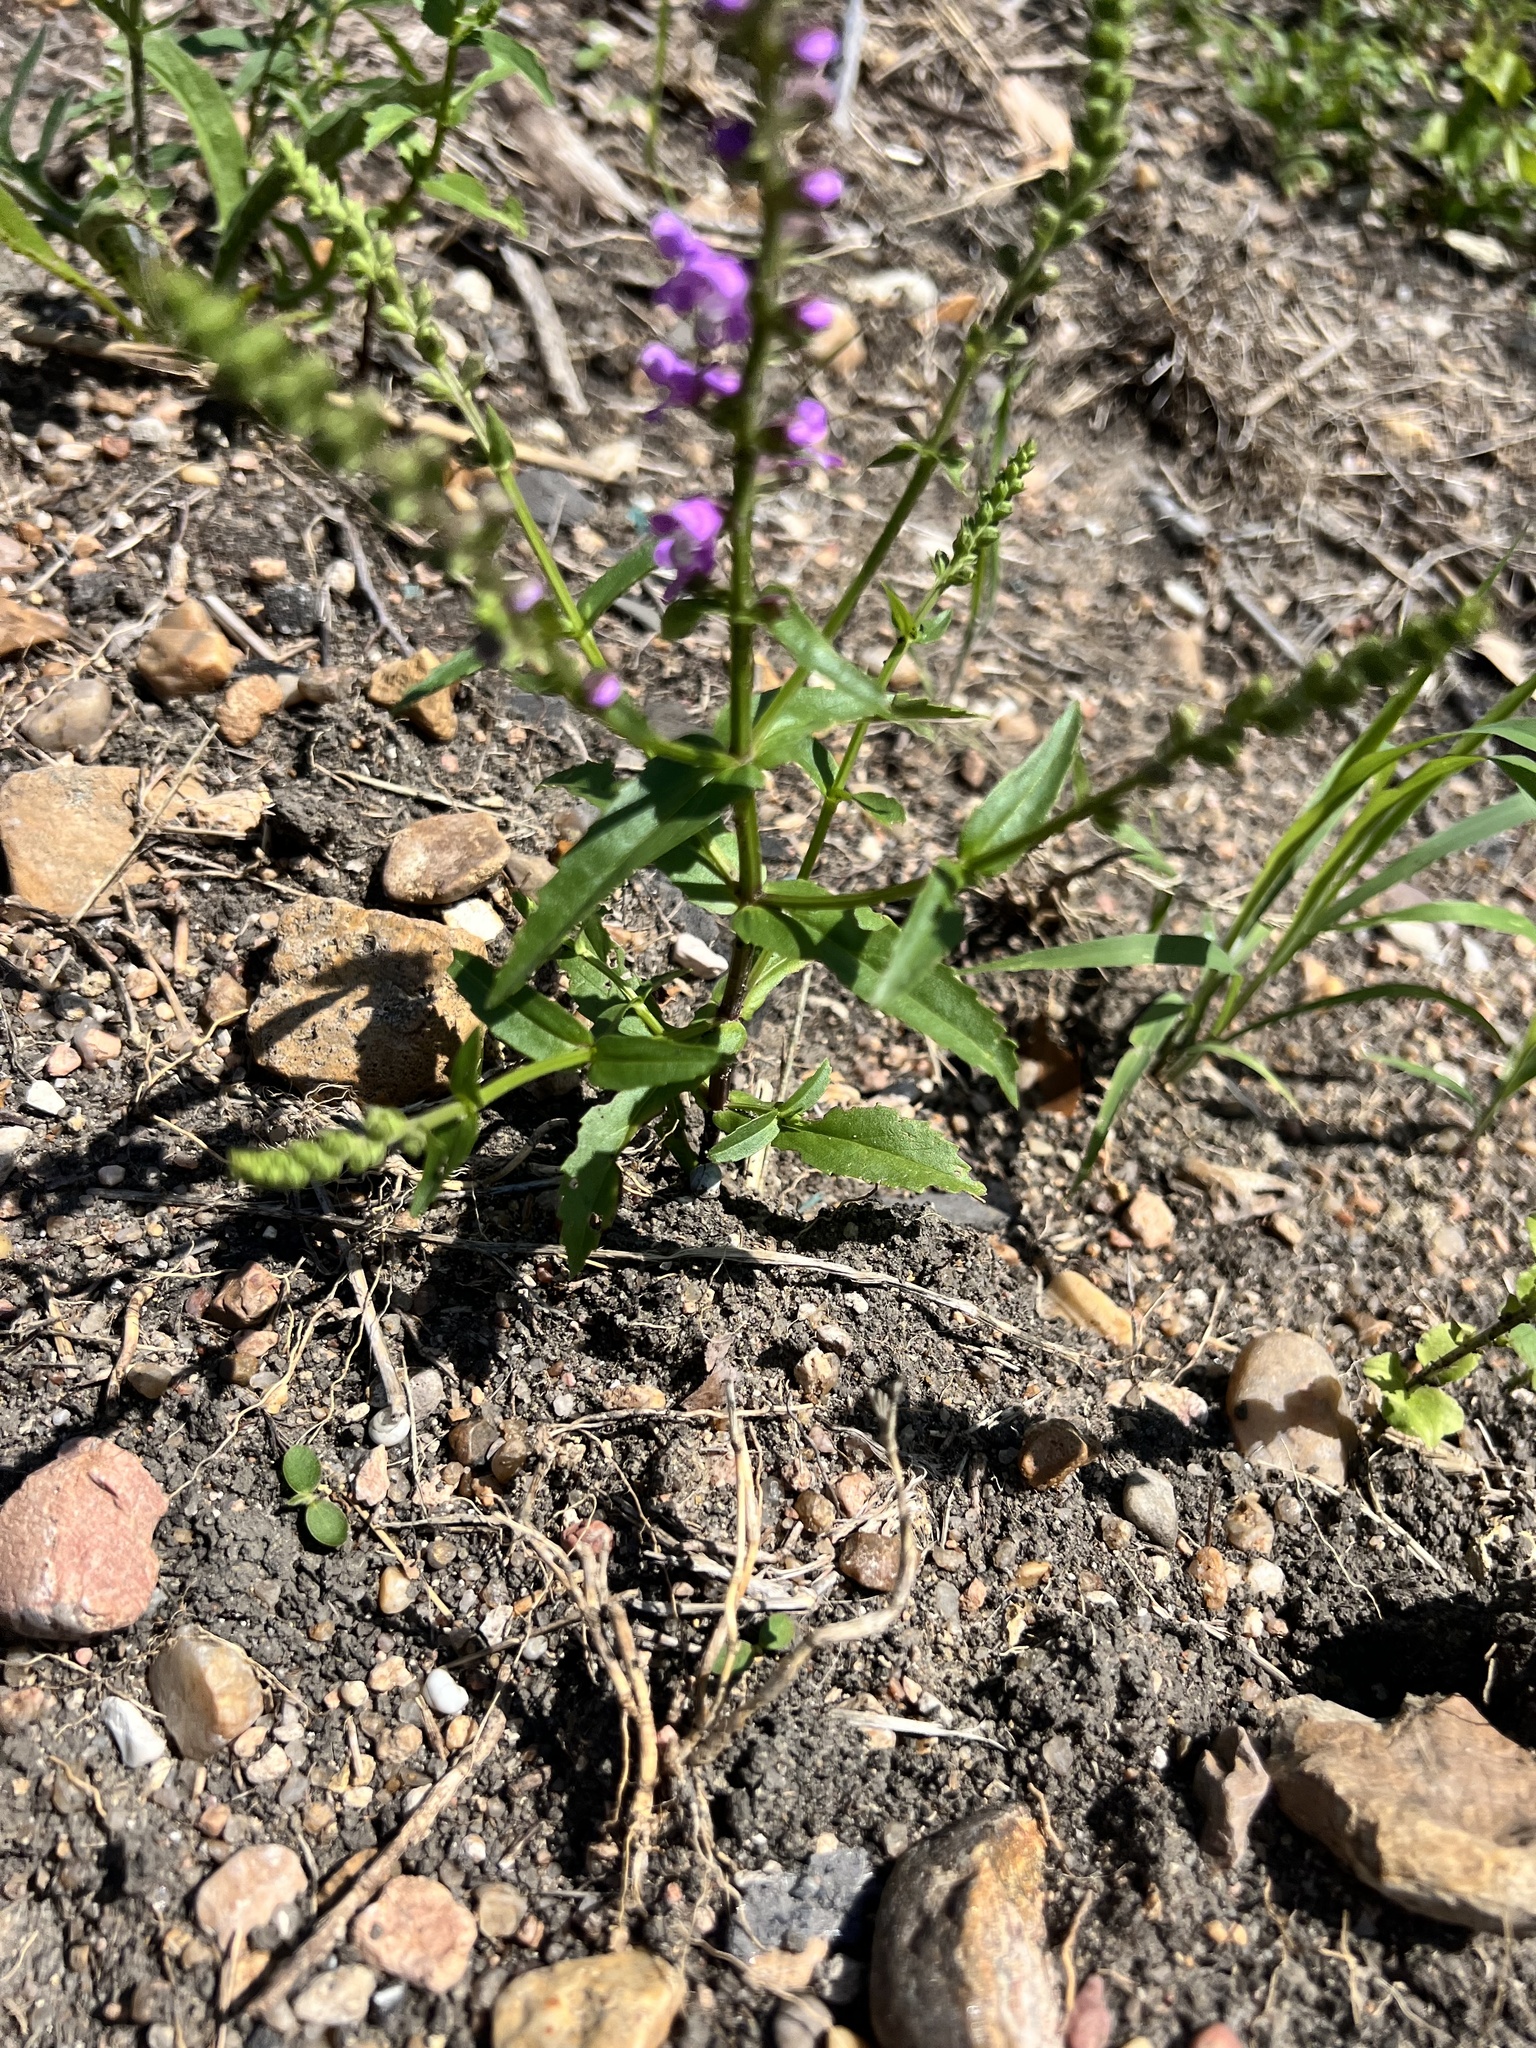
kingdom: Plantae
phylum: Tracheophyta
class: Magnoliopsida
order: Lamiales
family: Lamiaceae
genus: Warnockia
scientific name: Warnockia scutellarioides
